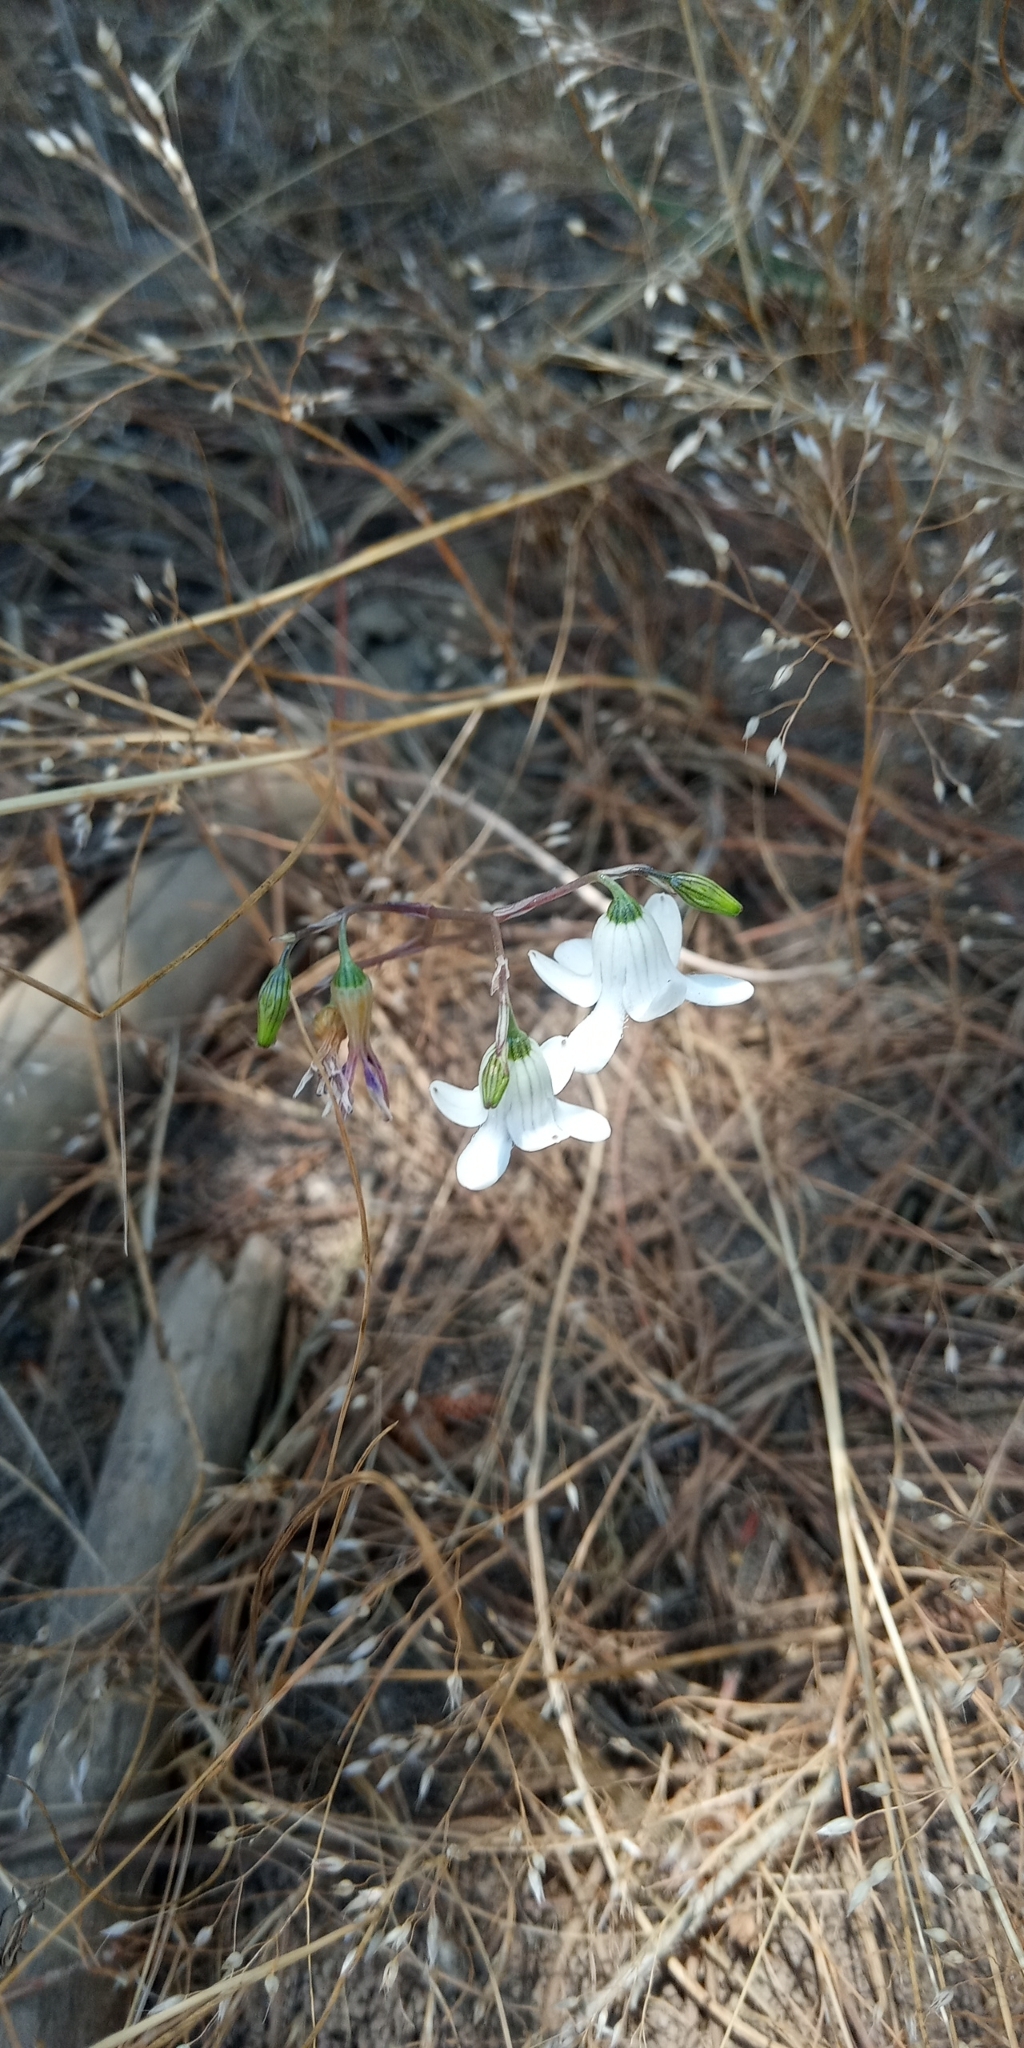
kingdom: Plantae
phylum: Tracheophyta
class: Liliopsida
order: Asparagales
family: Tecophilaeaceae
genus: Conanthera
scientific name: Conanthera parvula
